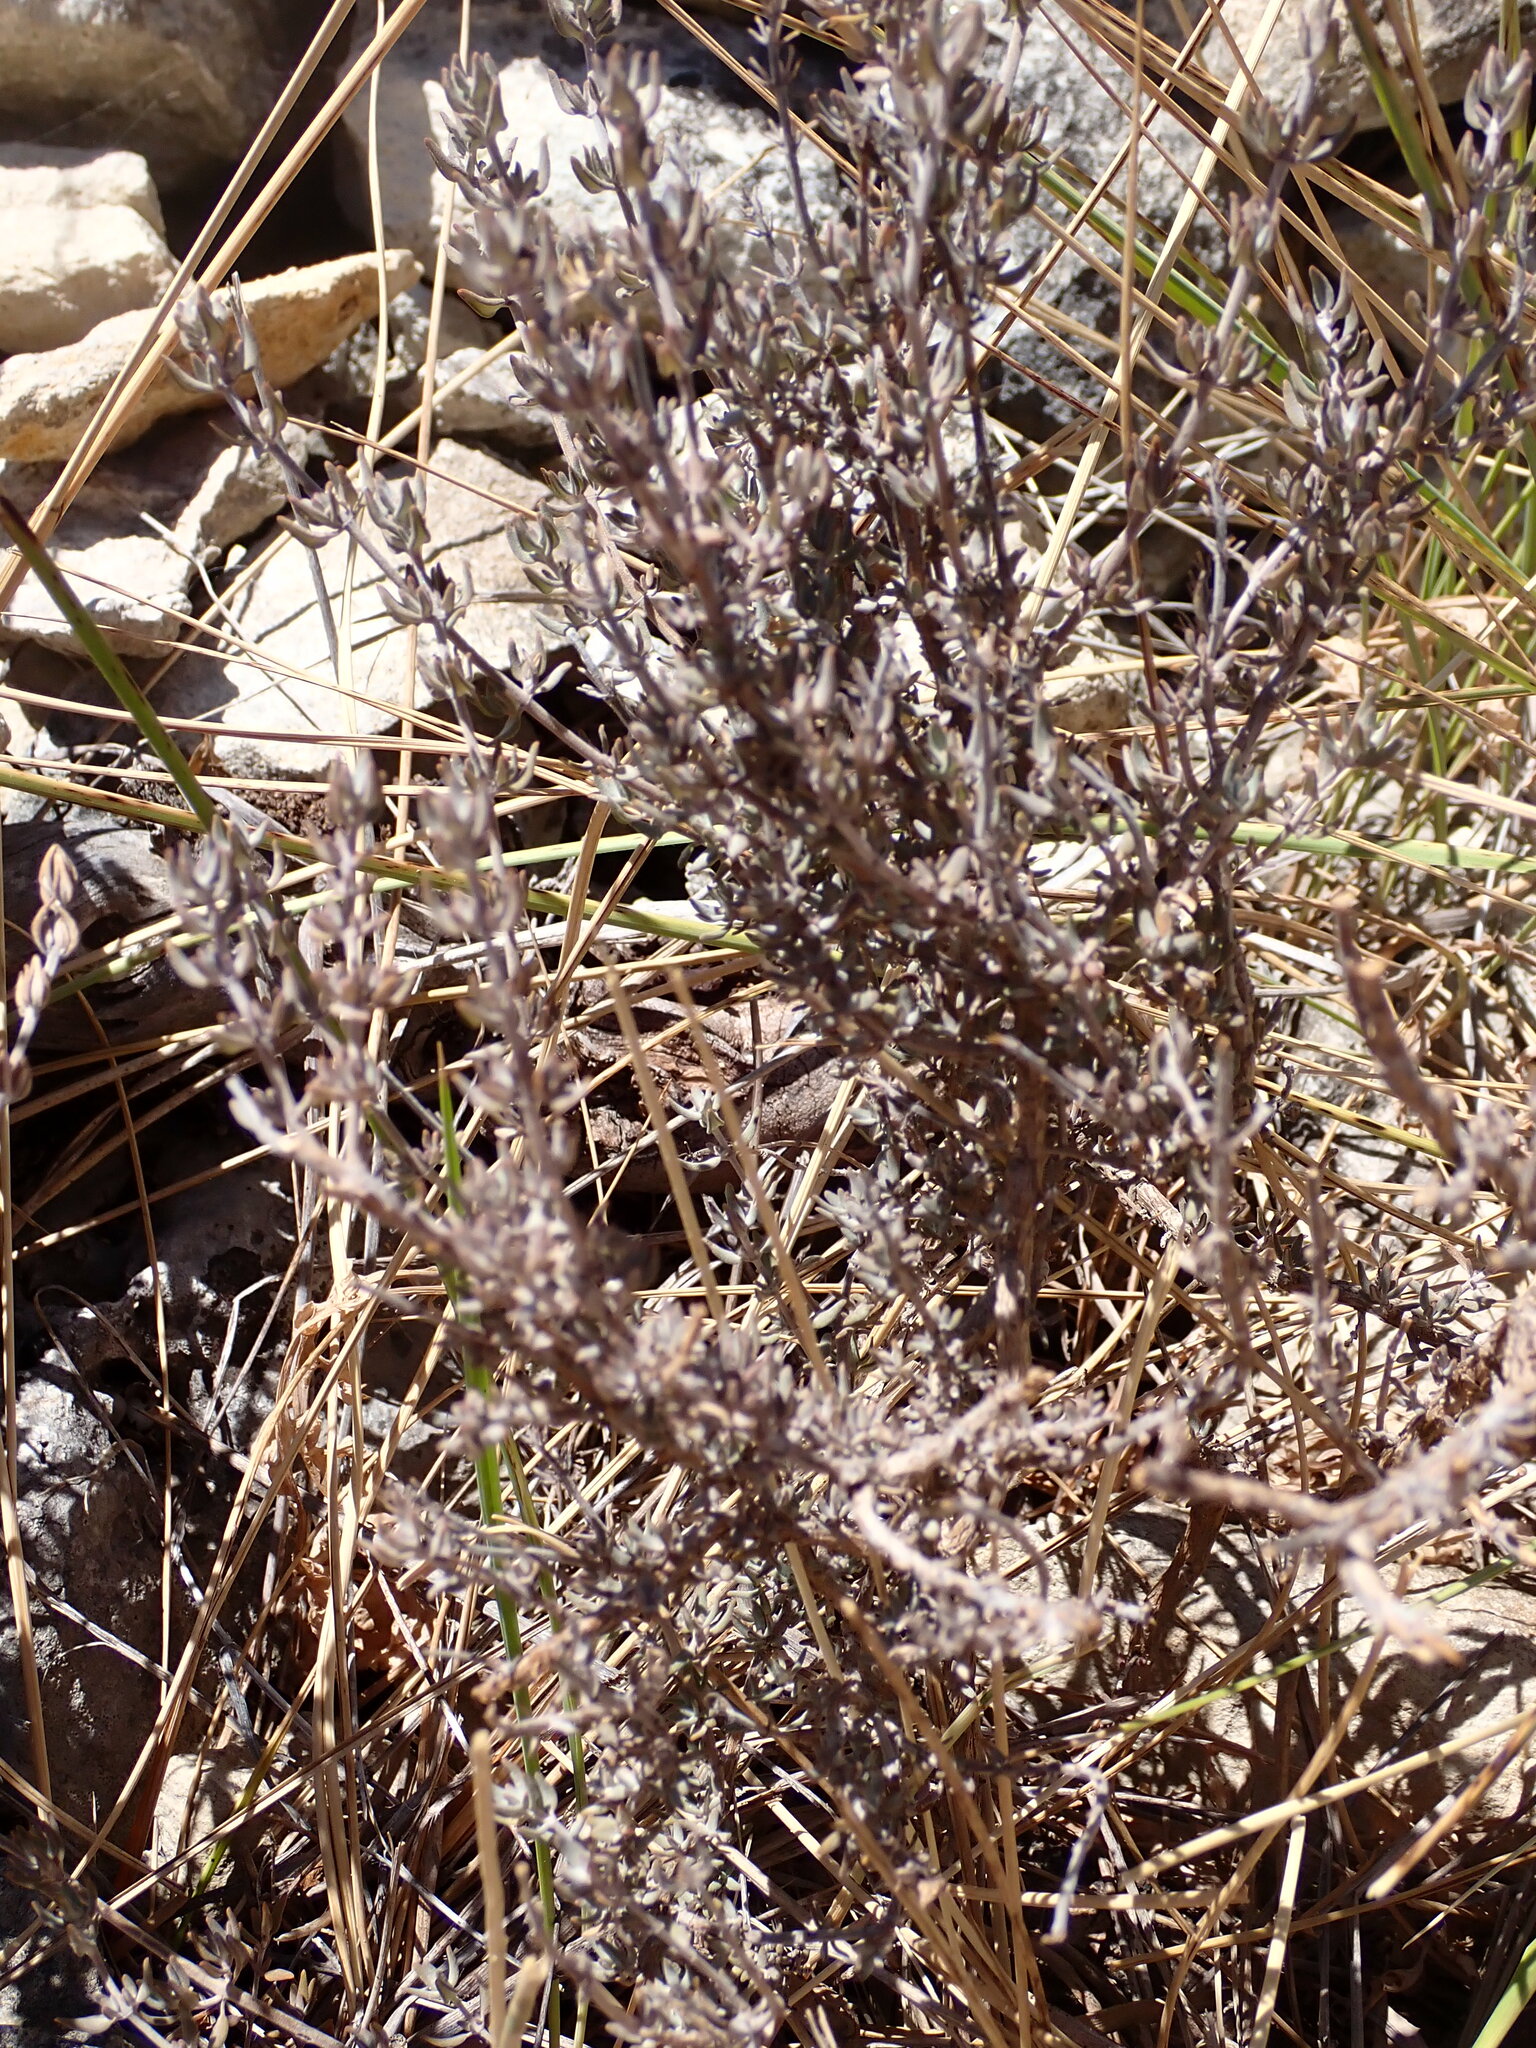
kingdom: Plantae
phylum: Tracheophyta
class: Magnoliopsida
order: Lamiales
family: Lamiaceae
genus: Thymus
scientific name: Thymus vulgaris
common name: Garden thyme
